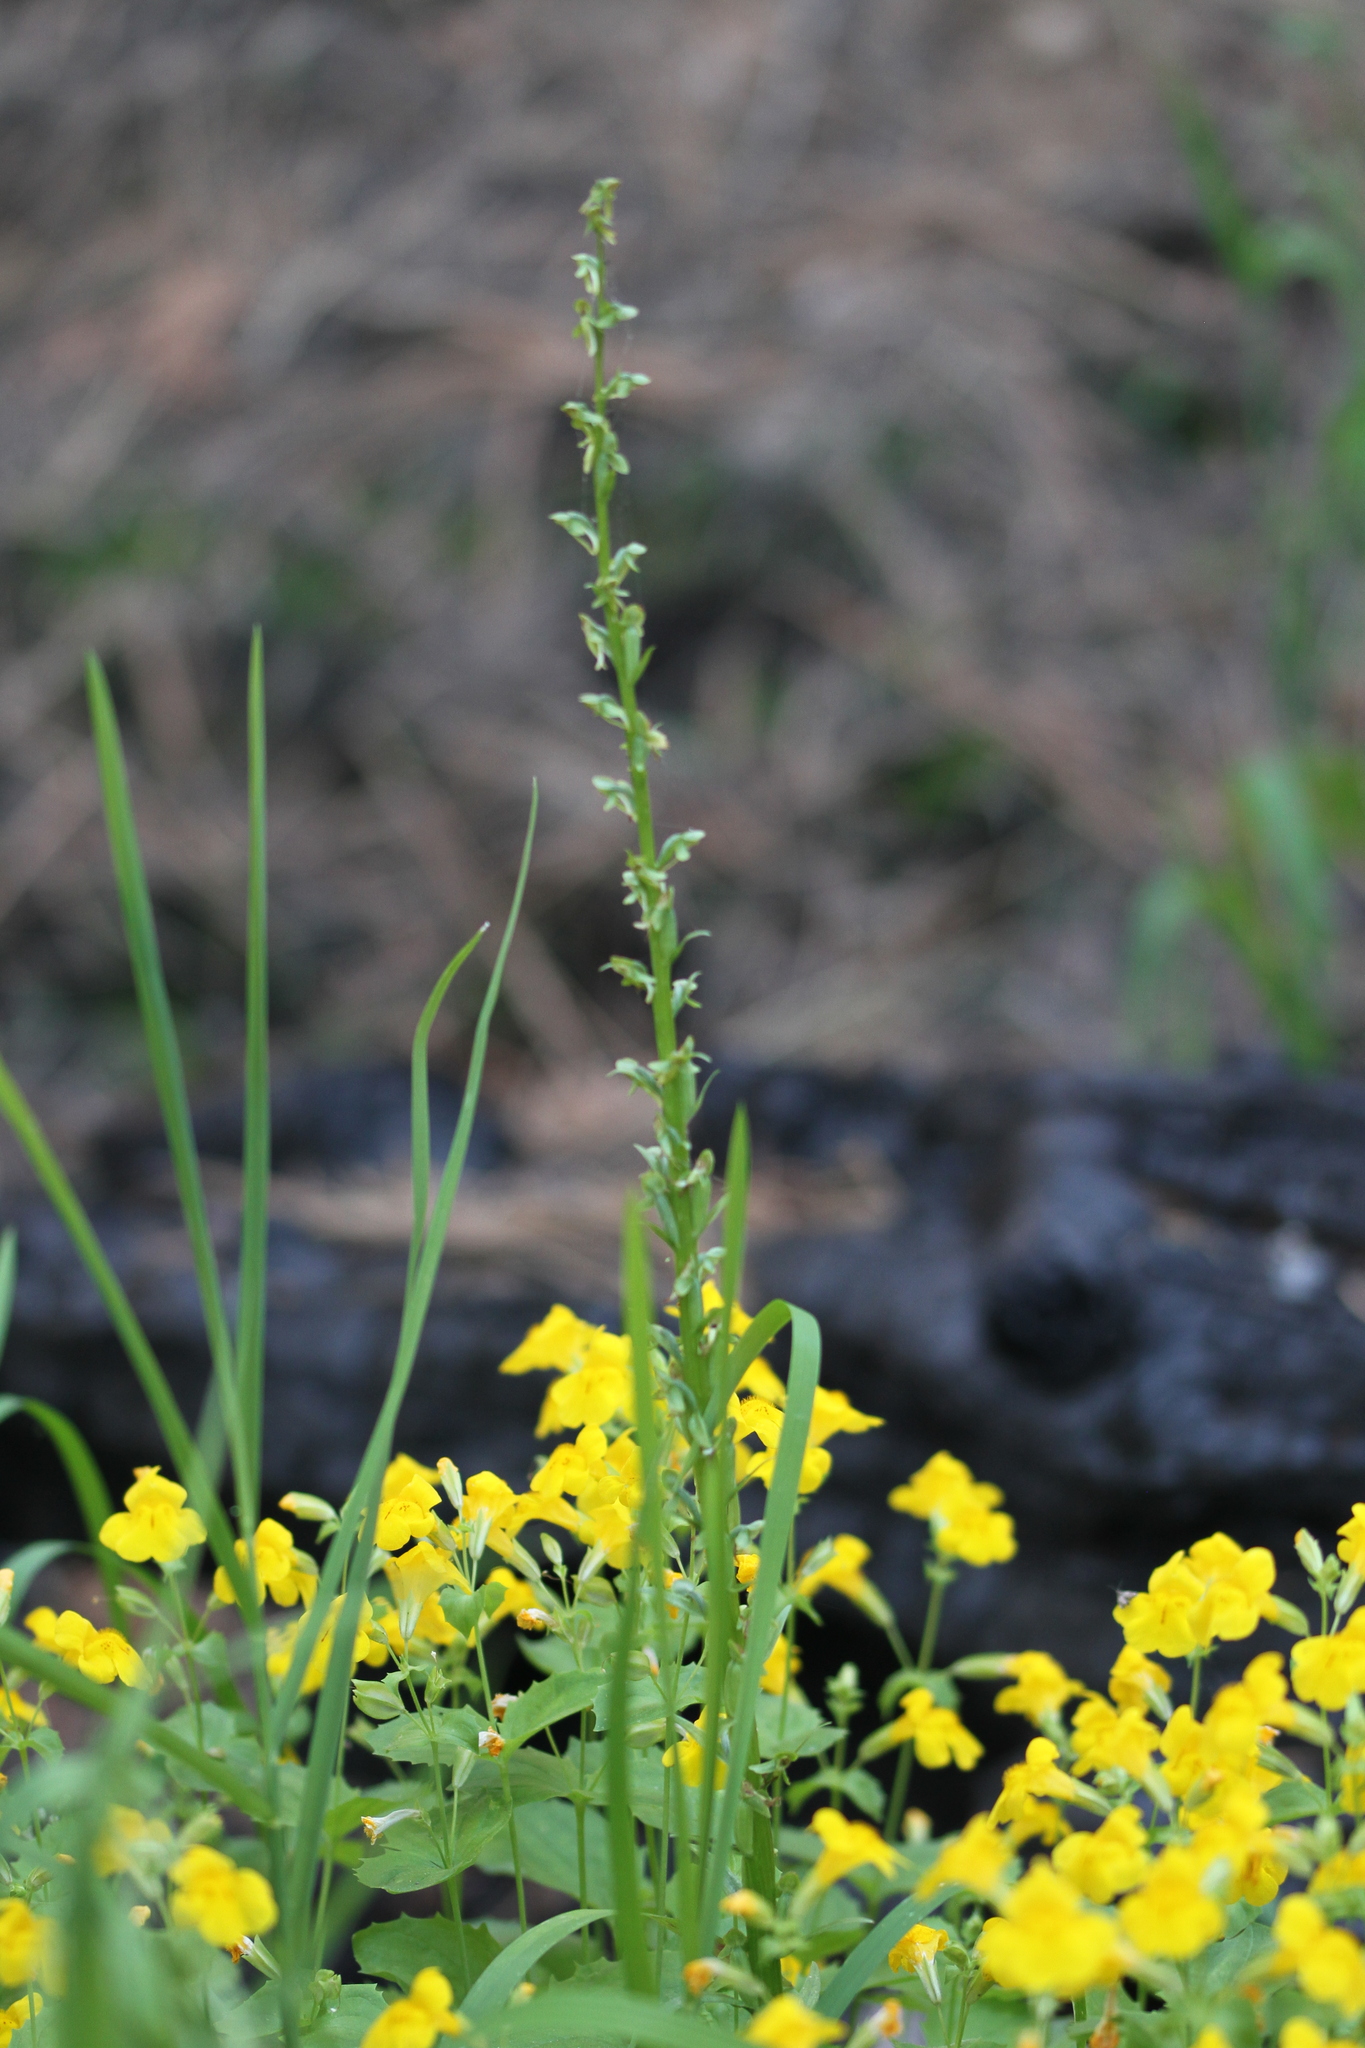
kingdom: Plantae
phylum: Tracheophyta
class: Liliopsida
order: Asparagales
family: Orchidaceae
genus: Platanthera
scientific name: Platanthera sparsiflora
